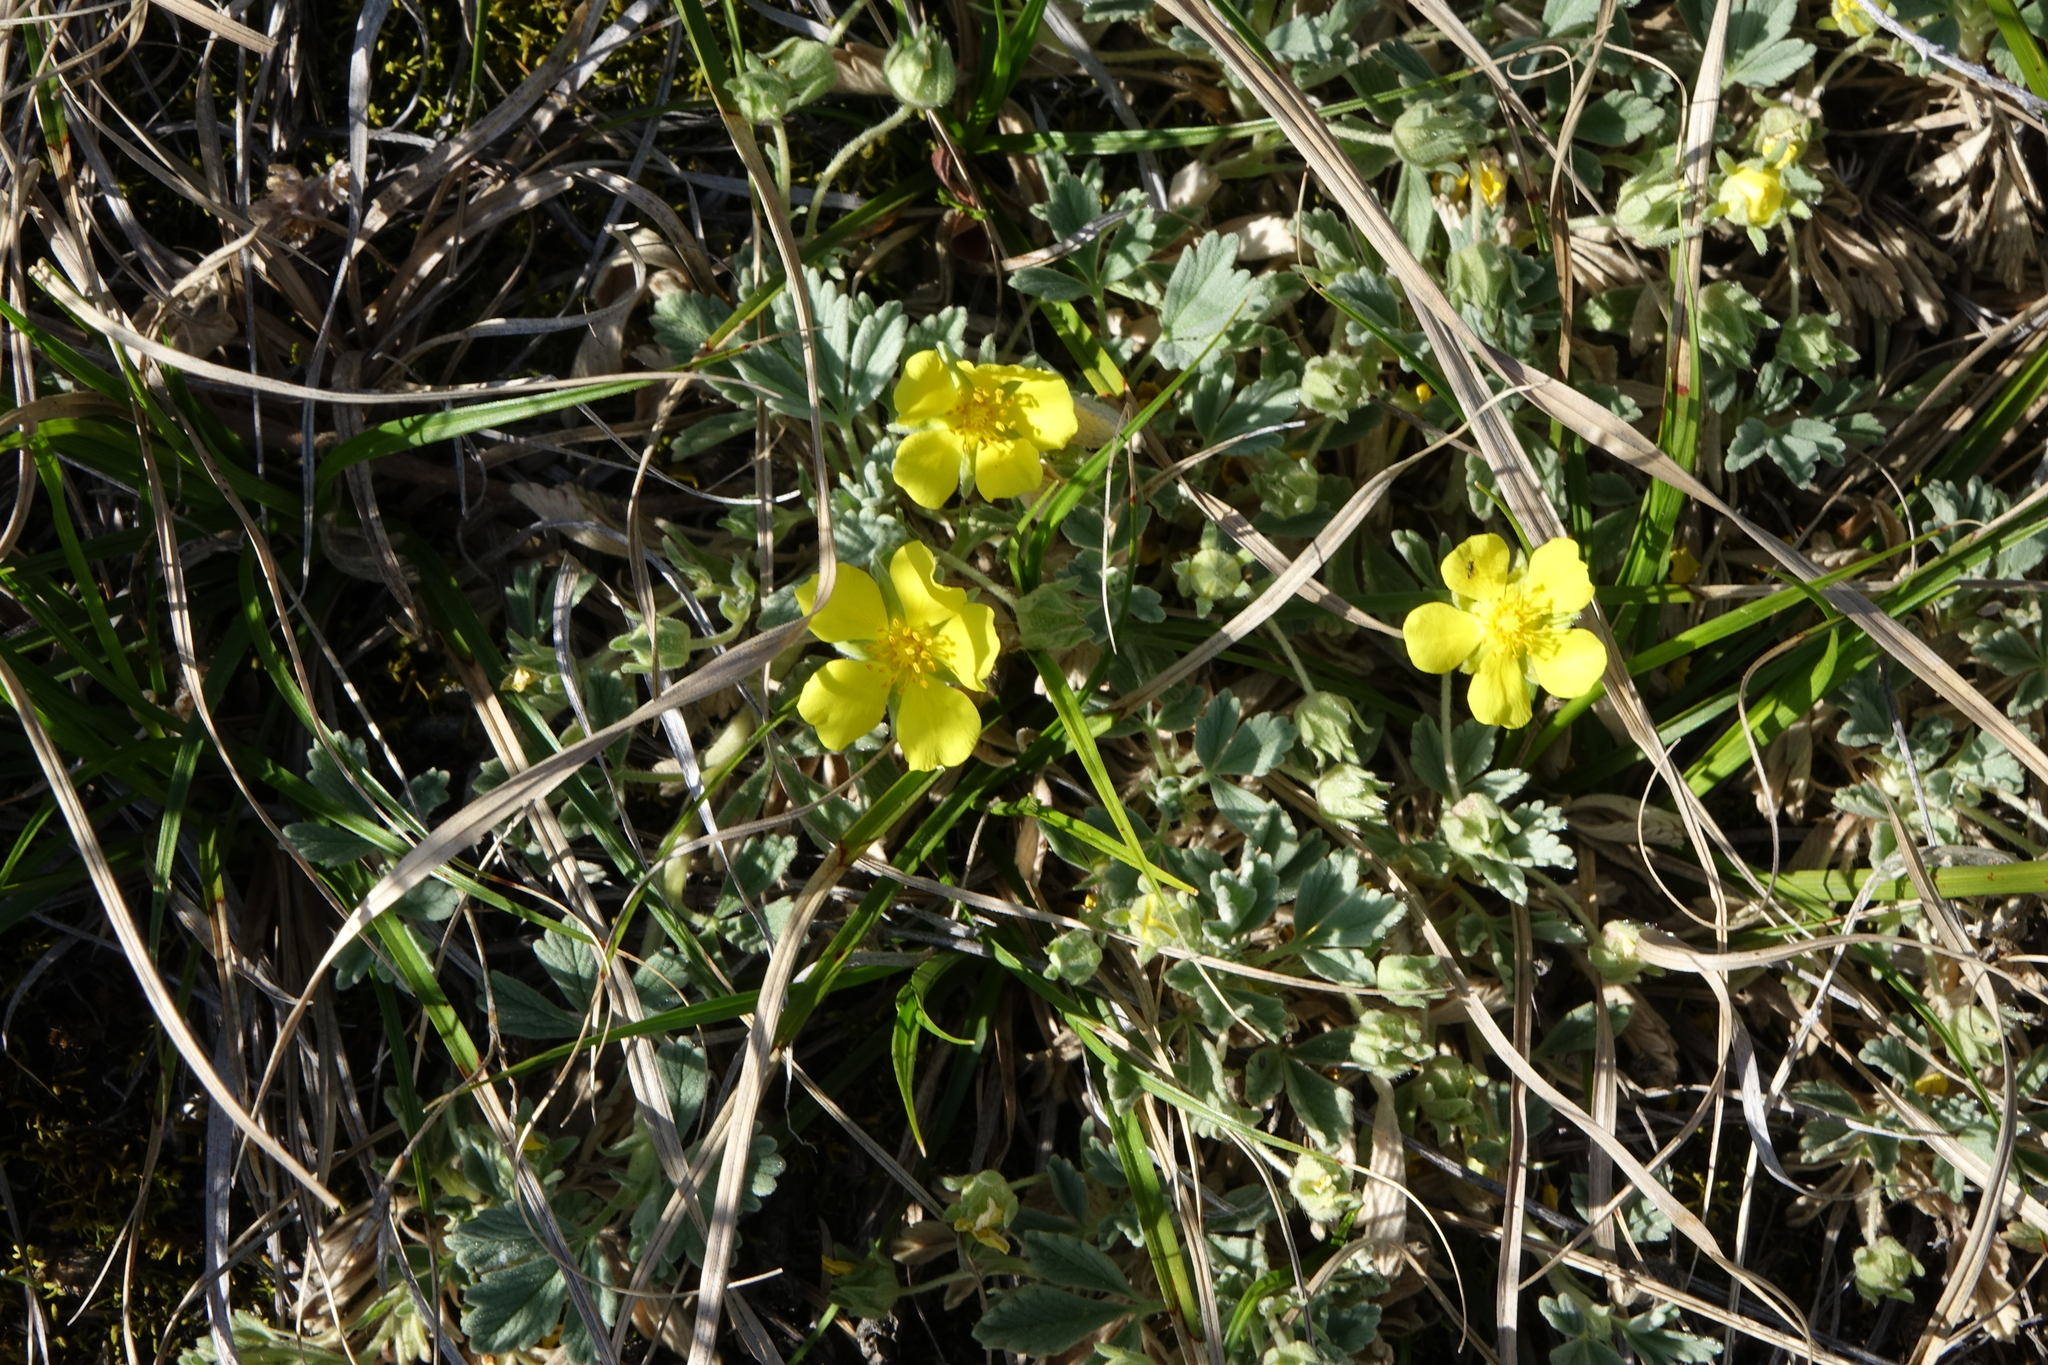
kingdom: Plantae
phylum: Tracheophyta
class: Magnoliopsida
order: Rosales
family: Rosaceae
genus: Potentilla
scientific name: Potentilla acaulis
